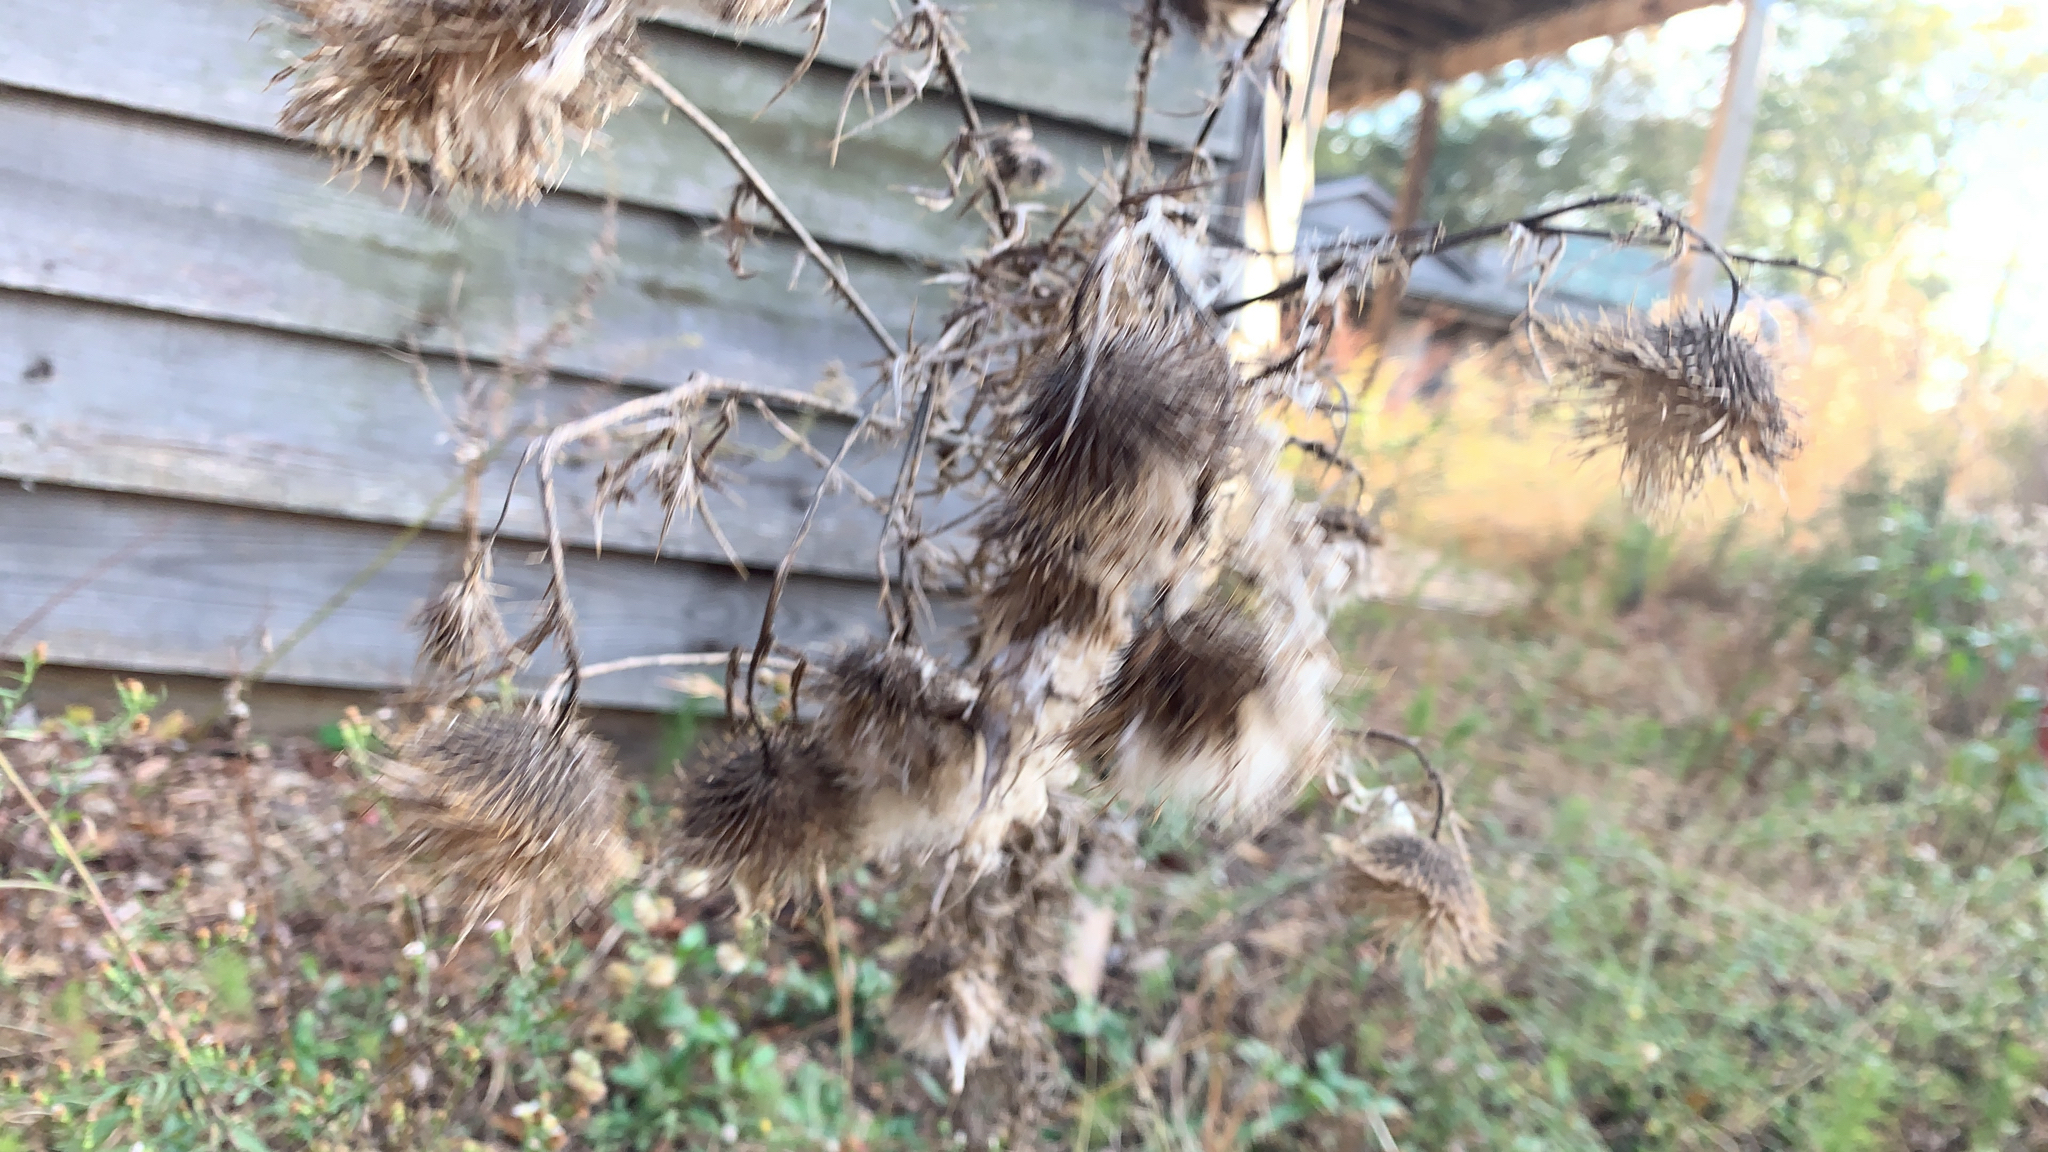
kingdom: Plantae
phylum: Tracheophyta
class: Magnoliopsida
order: Asterales
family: Asteraceae
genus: Cirsium
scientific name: Cirsium vulgare
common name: Bull thistle
